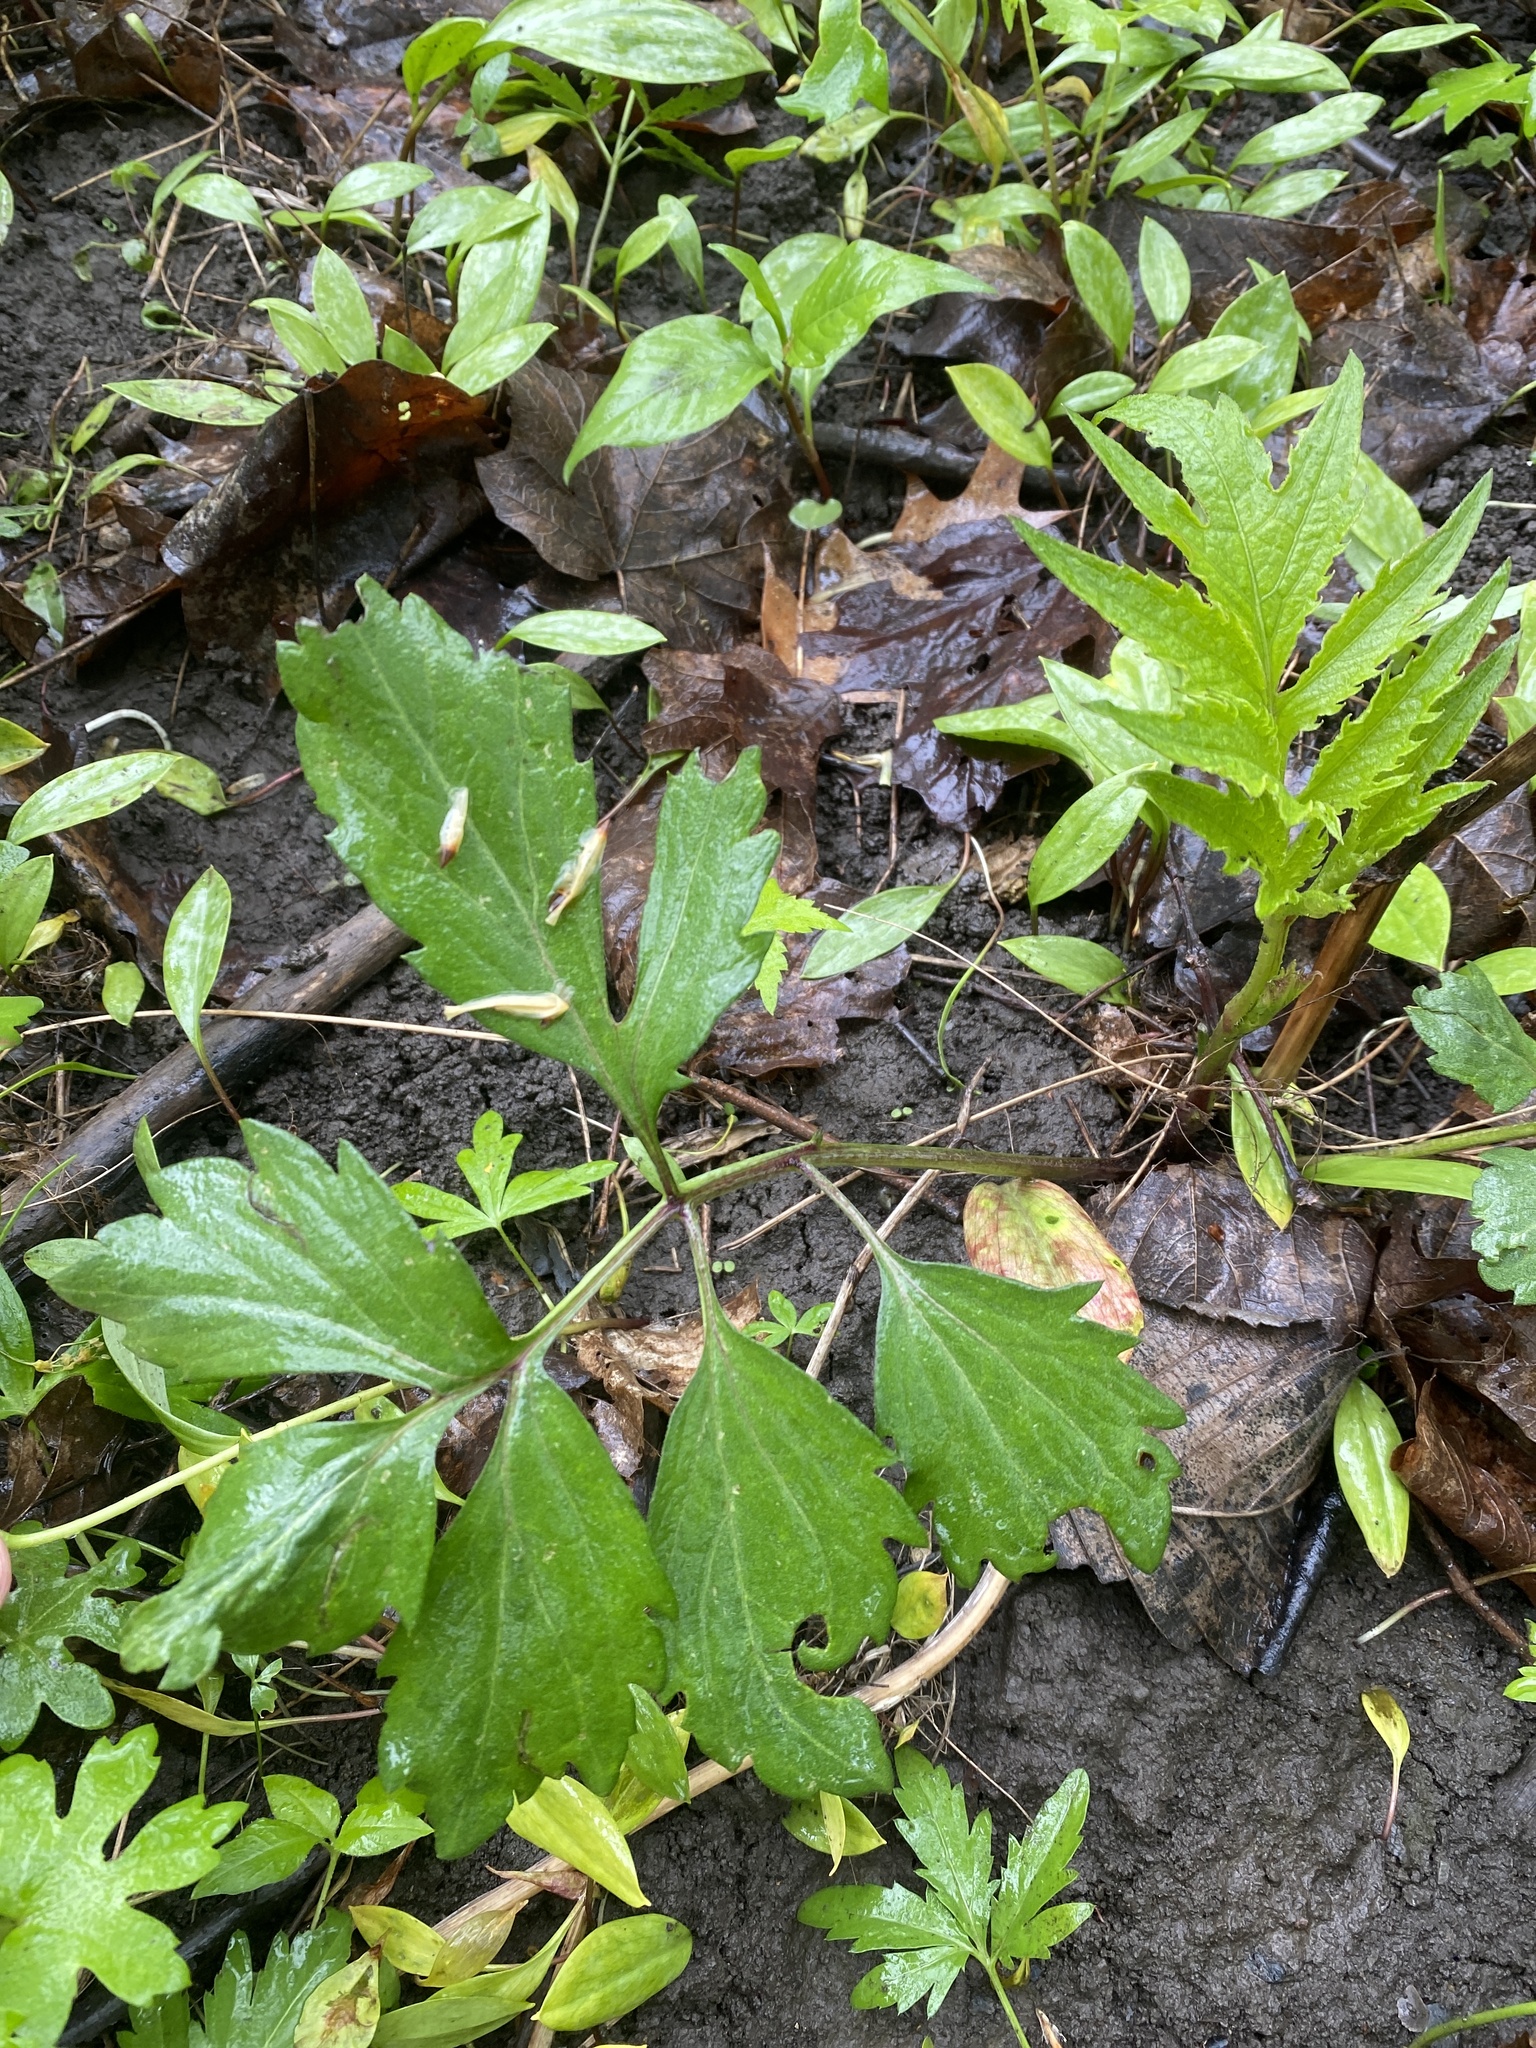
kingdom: Plantae
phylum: Tracheophyta
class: Magnoliopsida
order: Asterales
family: Asteraceae
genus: Rudbeckia
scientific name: Rudbeckia laciniata
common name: Coneflower
